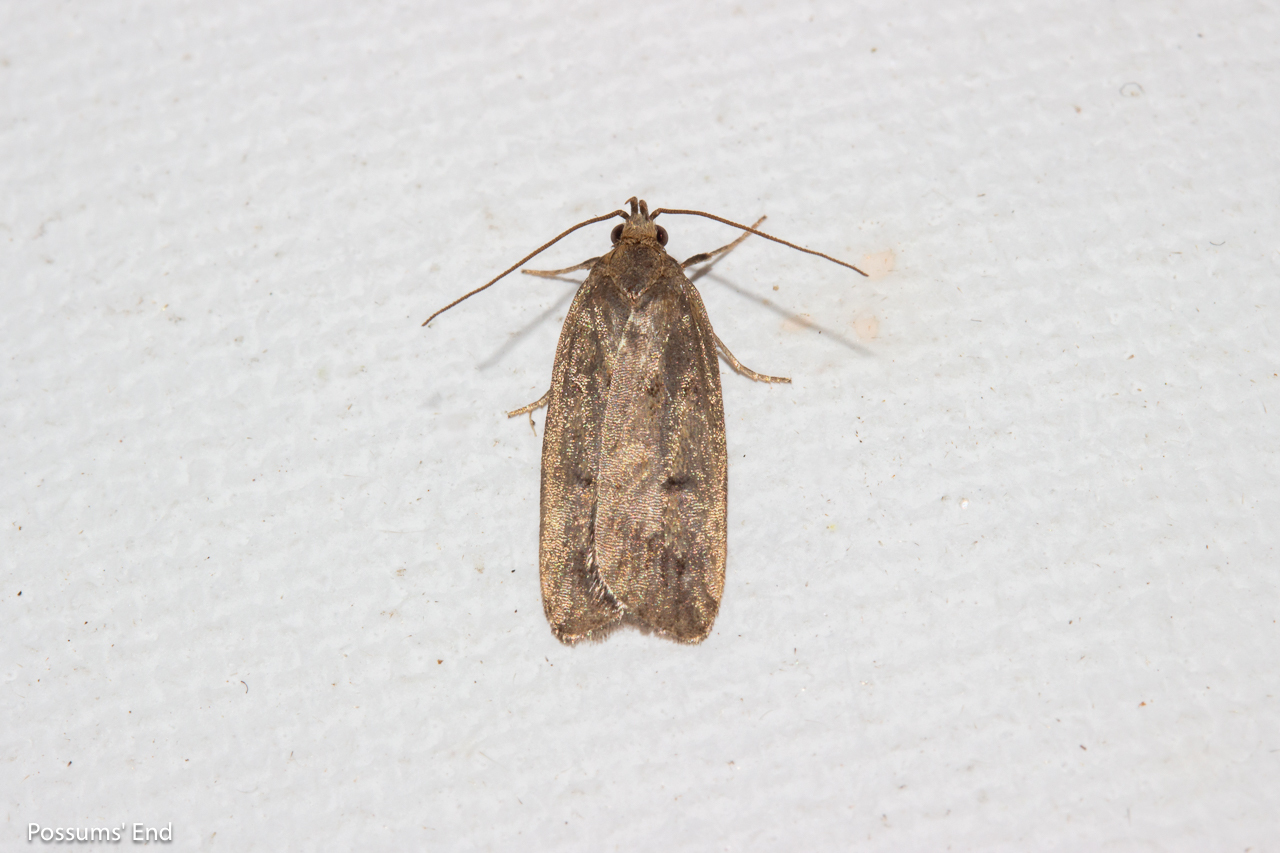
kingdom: Animalia
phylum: Arthropoda
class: Insecta
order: Lepidoptera
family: Depressariidae
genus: Phaeosaces
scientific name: Phaeosaces apocrypta
